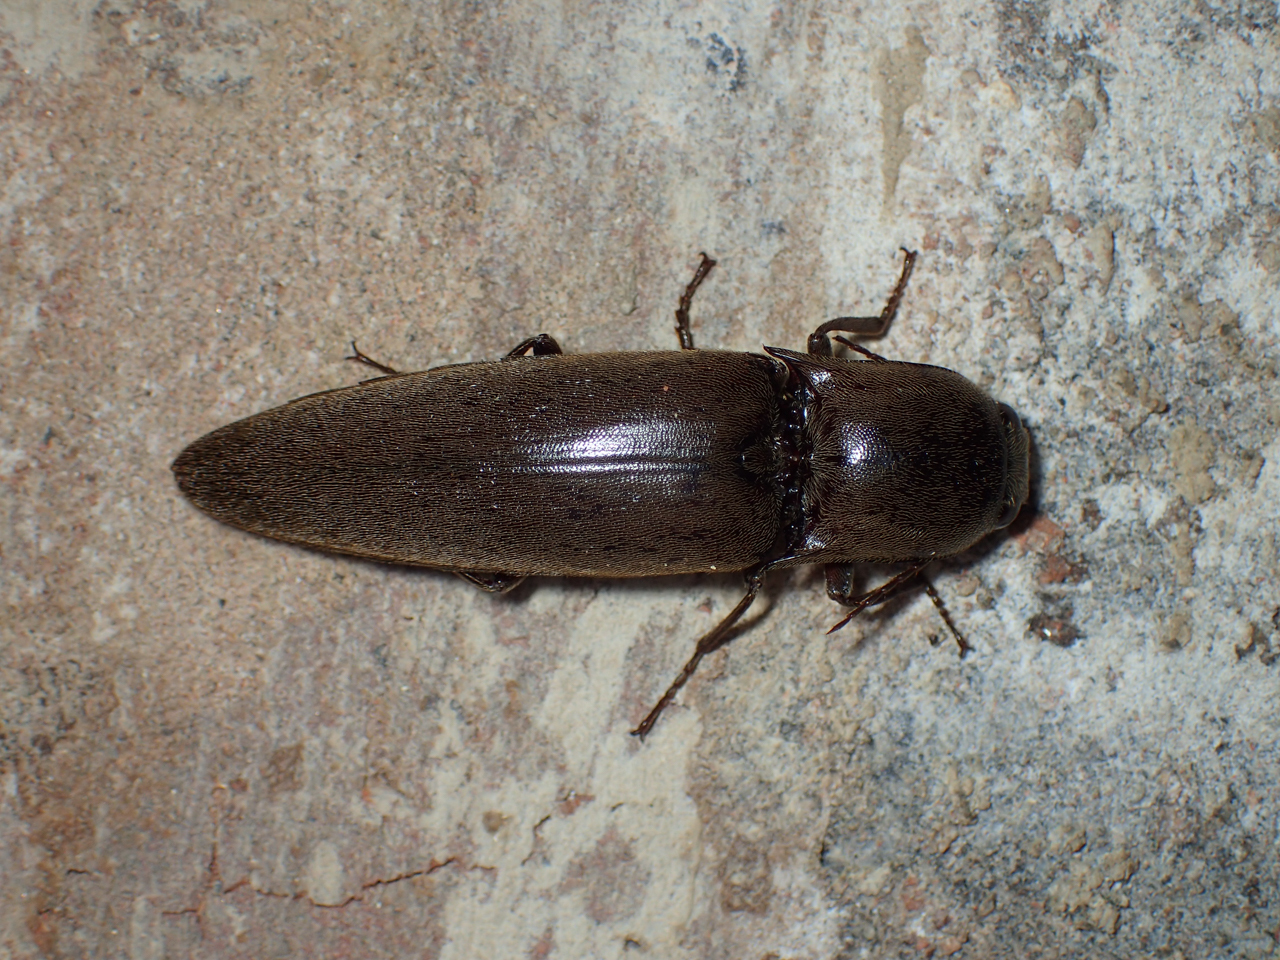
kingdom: Animalia
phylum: Arthropoda
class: Insecta
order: Coleoptera
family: Elateridae
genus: Orthostethus
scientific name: Orthostethus infuscatus
